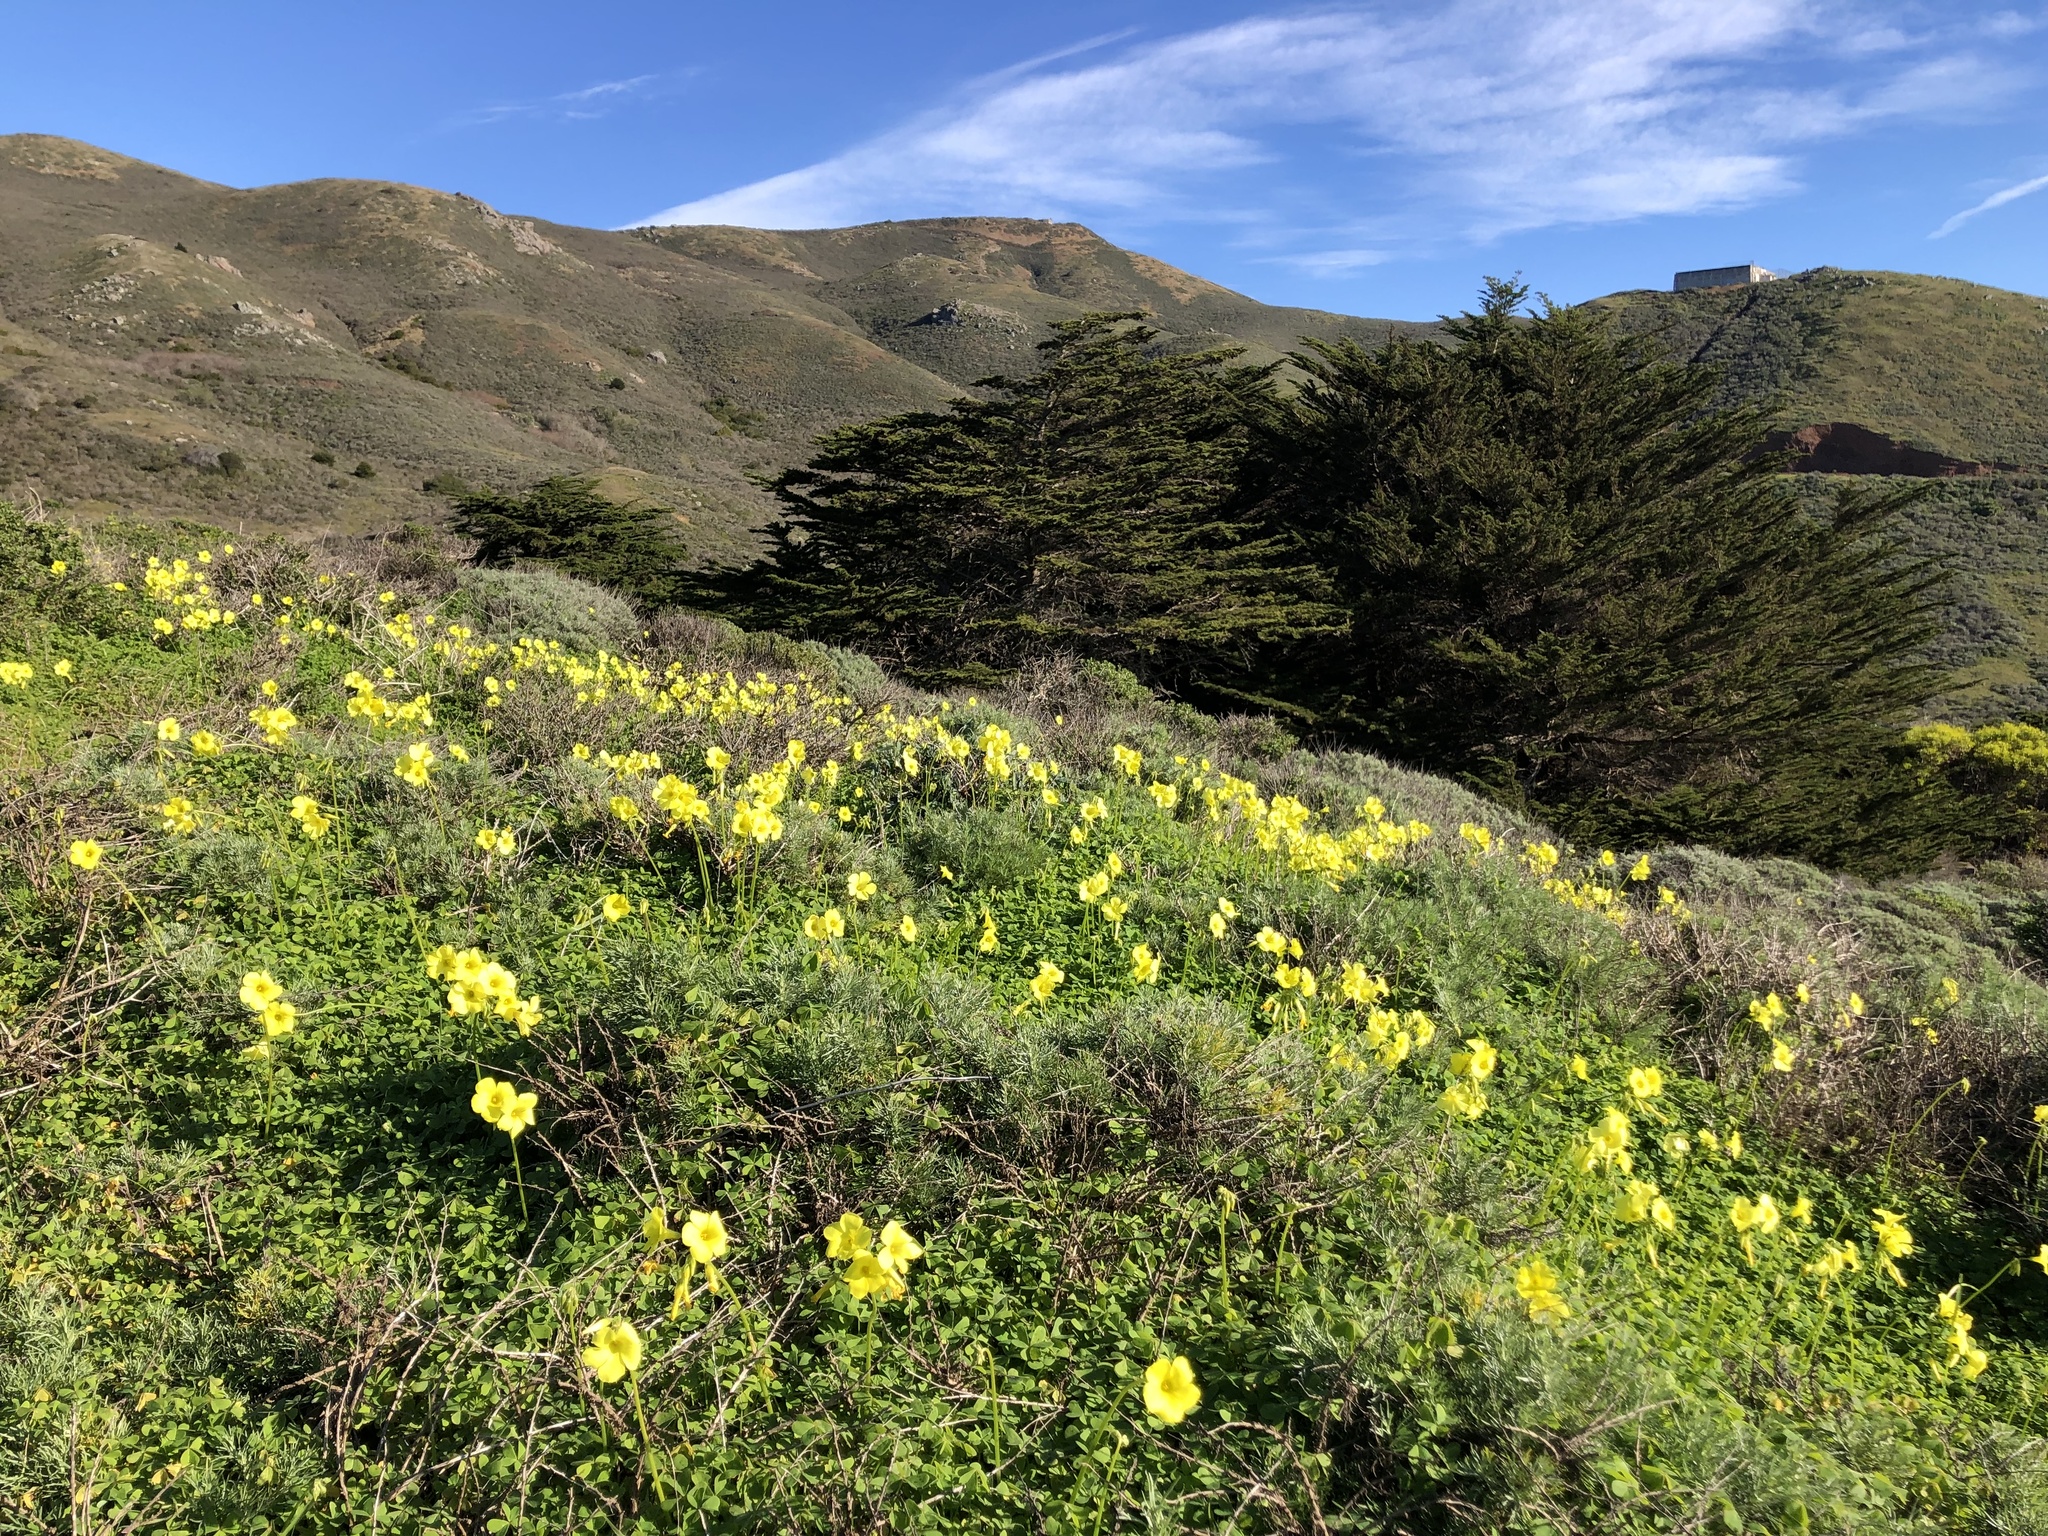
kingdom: Plantae
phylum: Tracheophyta
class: Magnoliopsida
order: Oxalidales
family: Oxalidaceae
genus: Oxalis
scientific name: Oxalis pes-caprae
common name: Bermuda-buttercup
